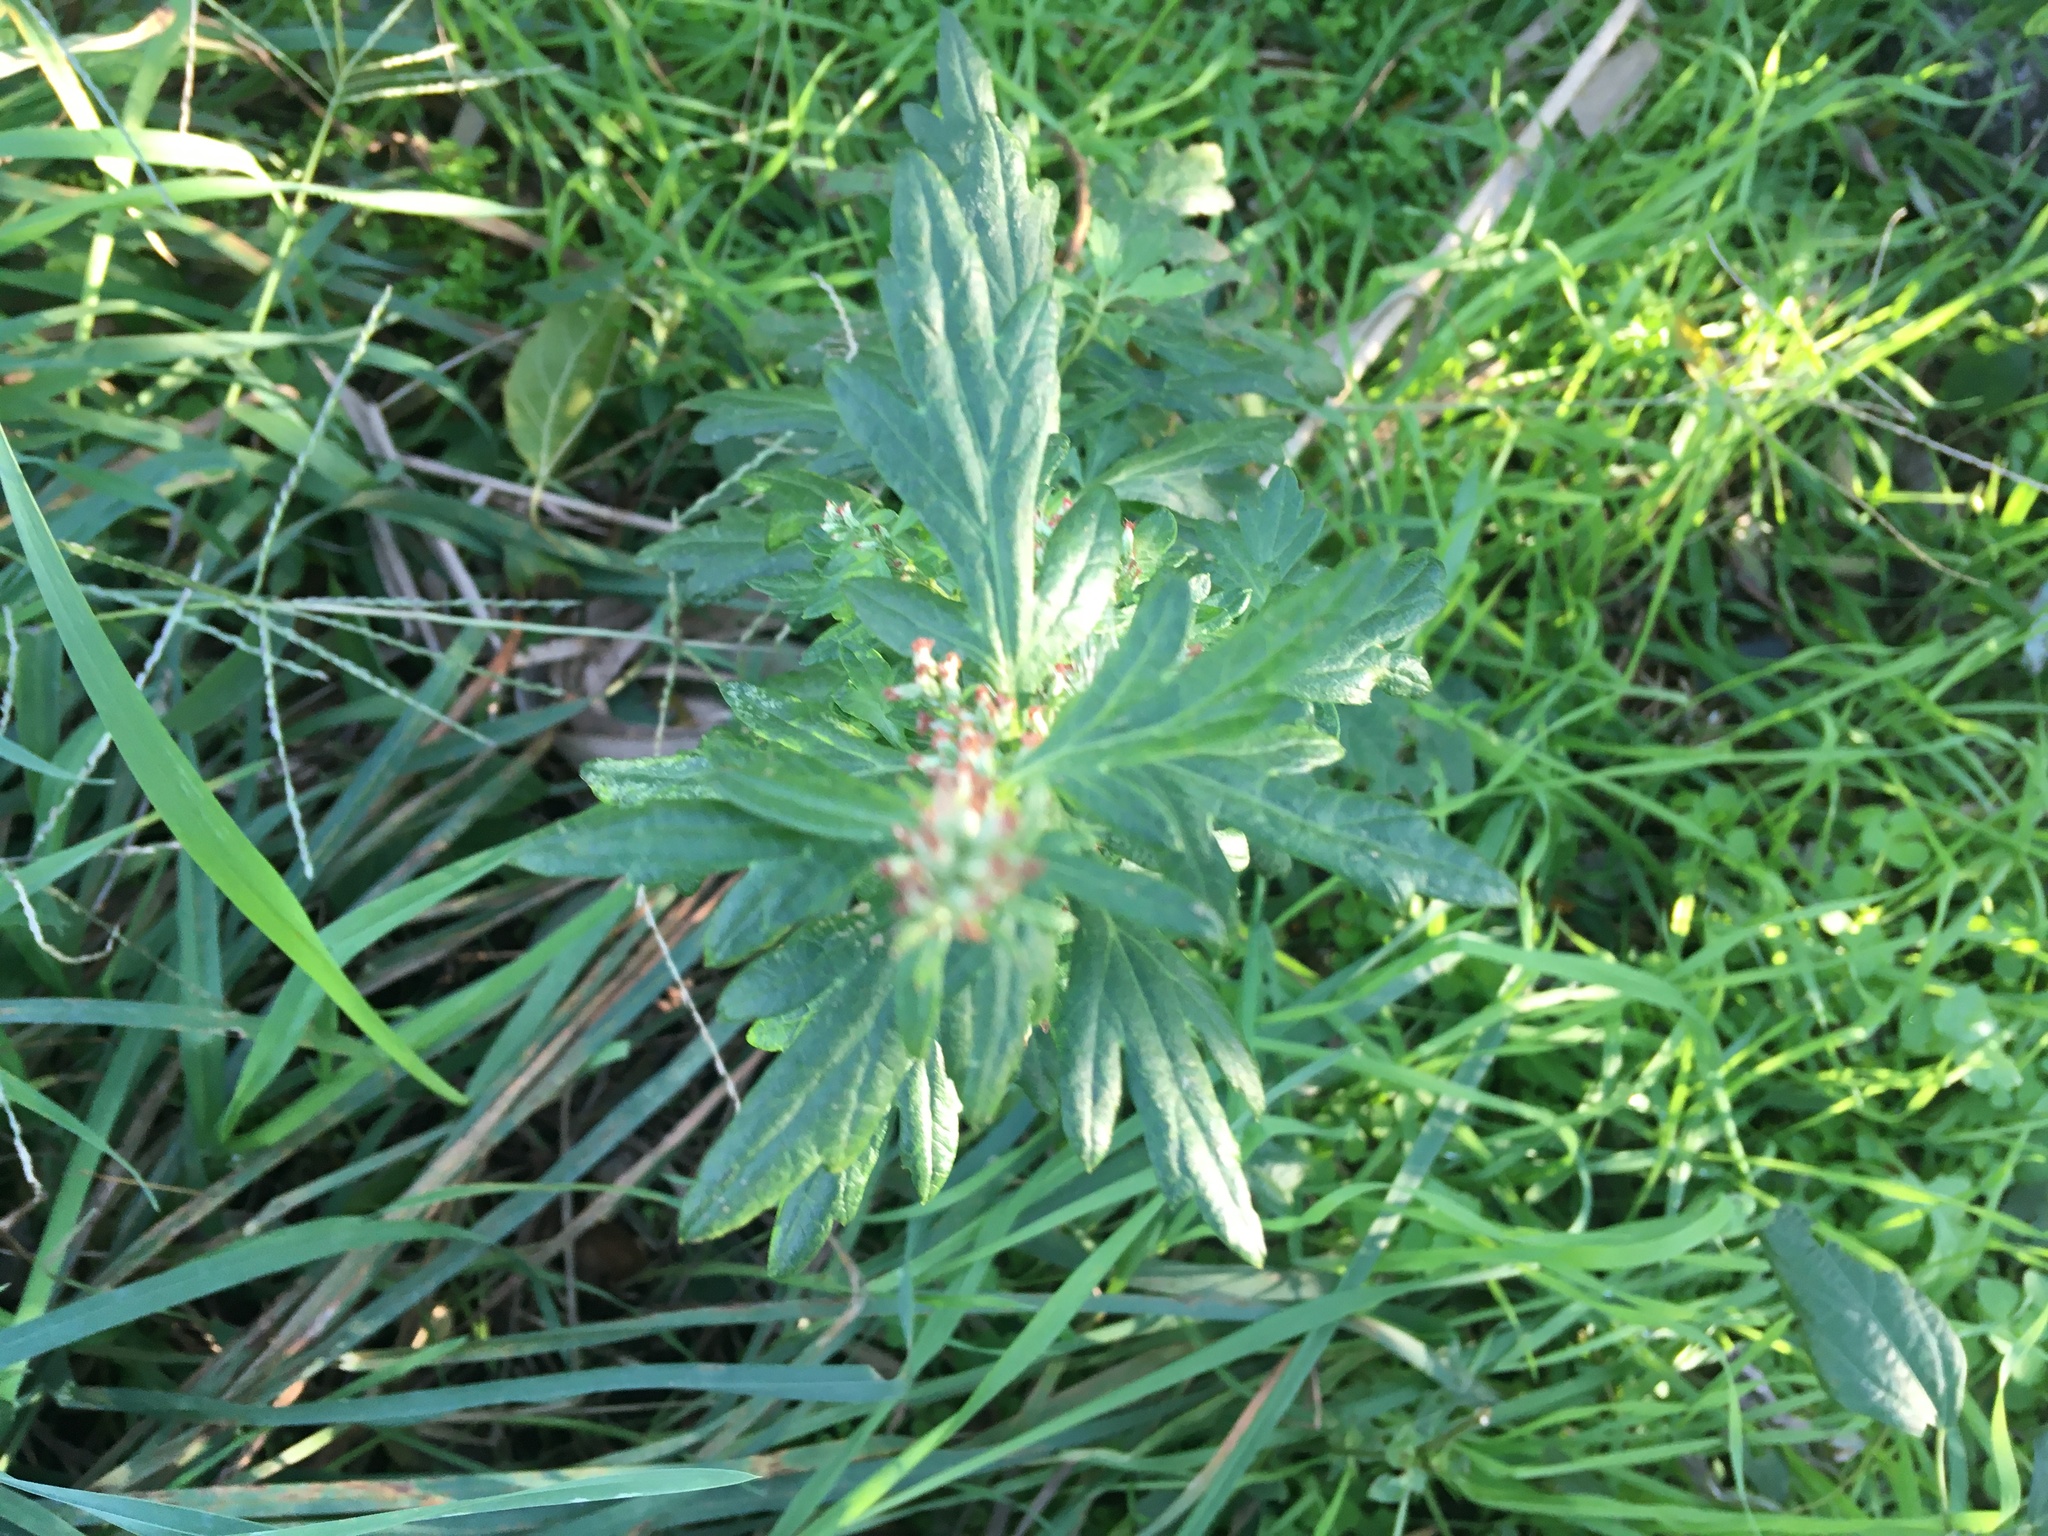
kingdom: Plantae
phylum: Tracheophyta
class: Magnoliopsida
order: Asterales
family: Asteraceae
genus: Artemisia
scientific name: Artemisia vulgaris
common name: Mugwort
